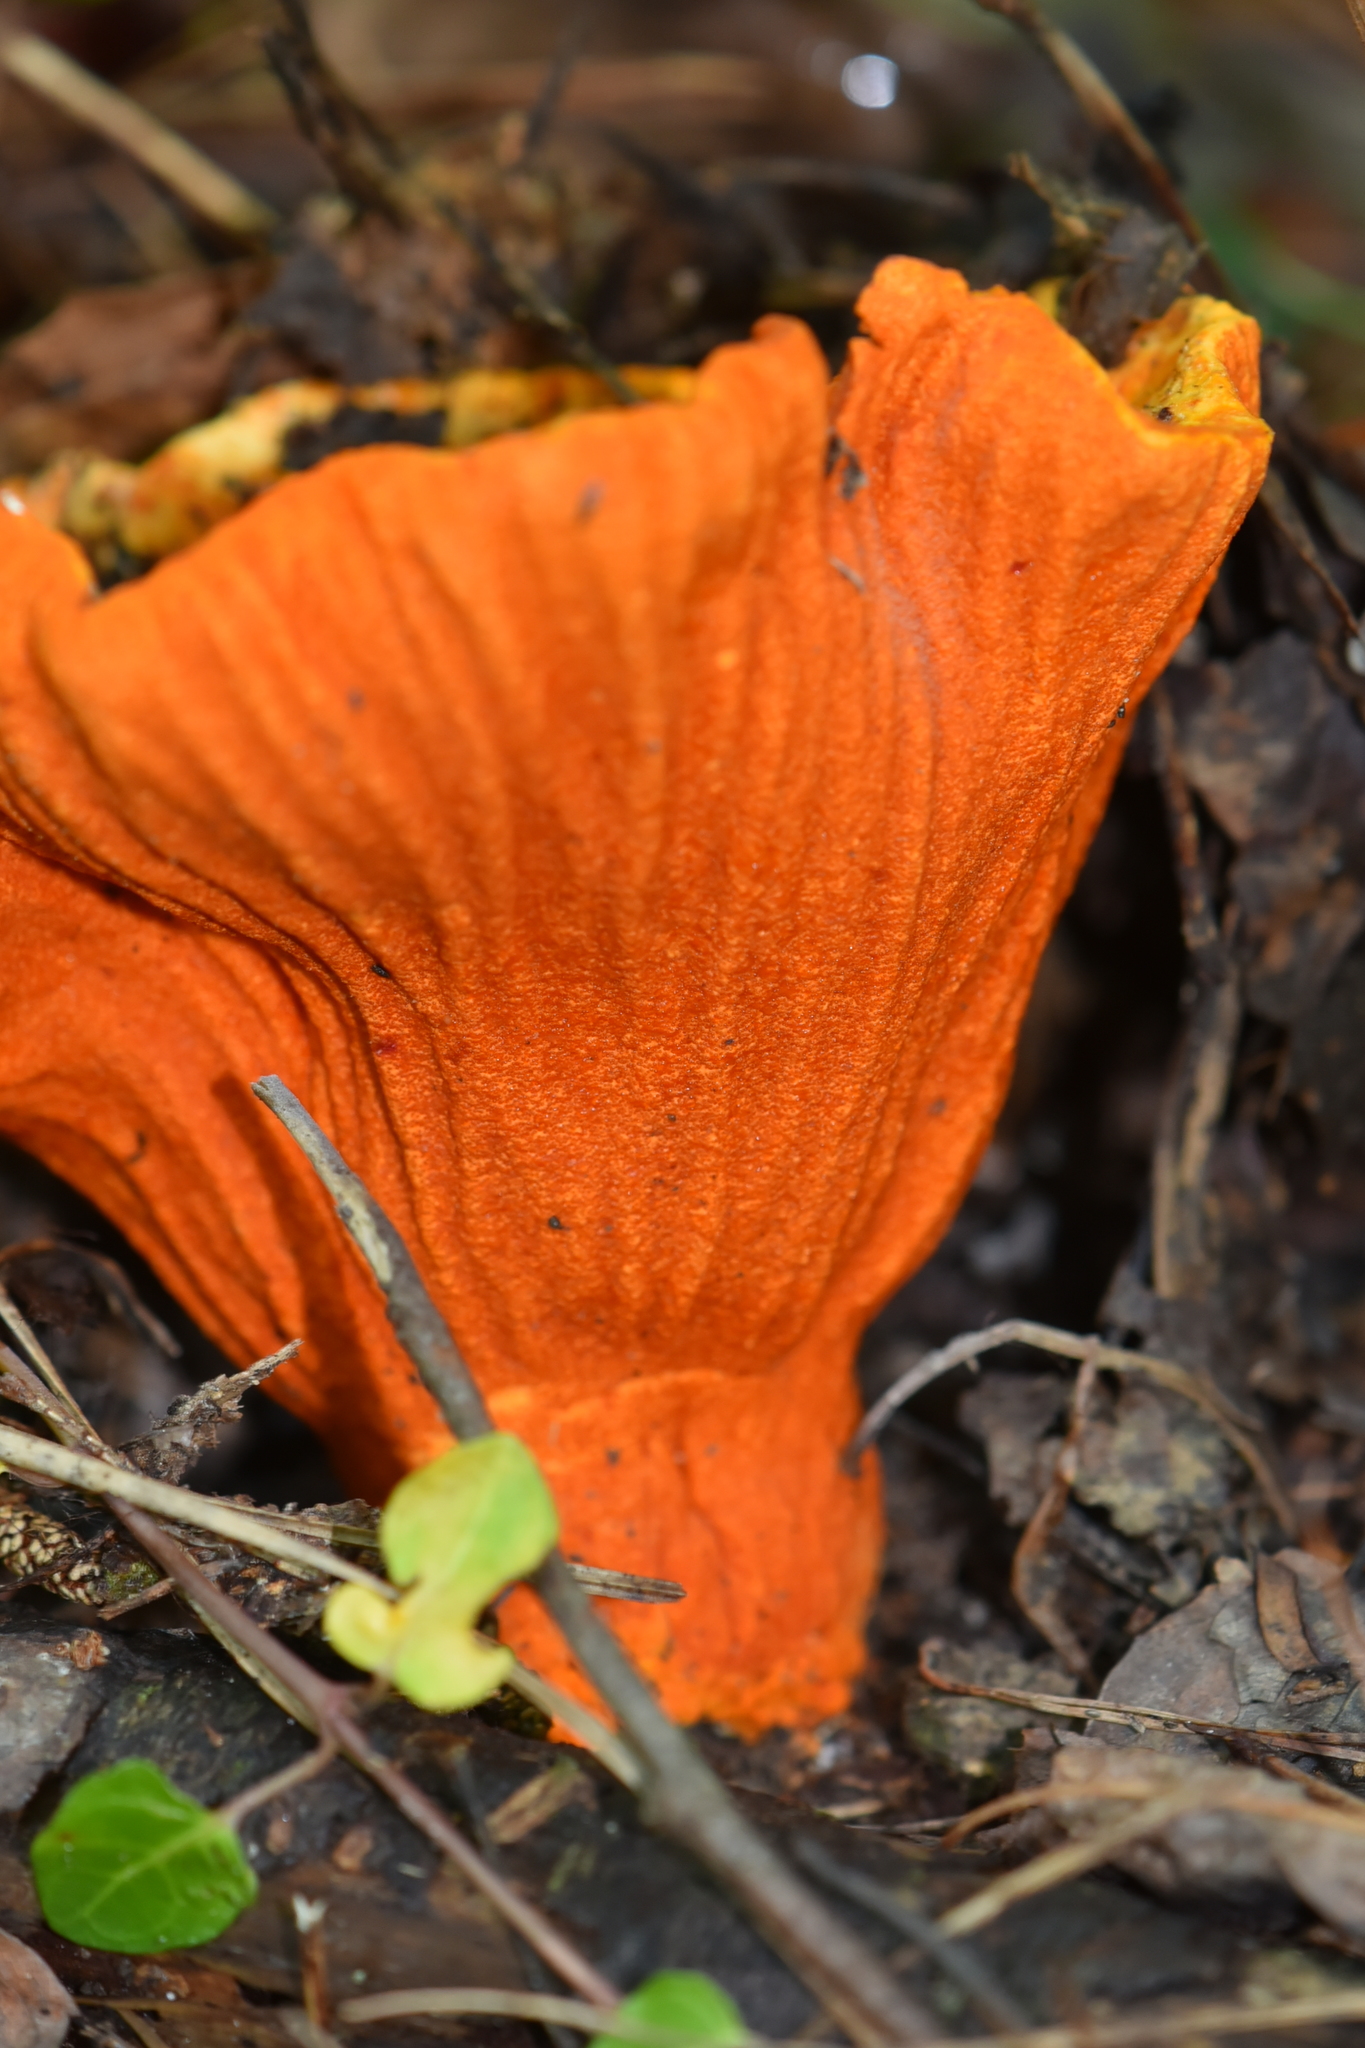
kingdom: Fungi
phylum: Ascomycota
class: Sordariomycetes
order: Hypocreales
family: Hypocreaceae
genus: Hypomyces
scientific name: Hypomyces lactifluorum
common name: Lobster mushroom
